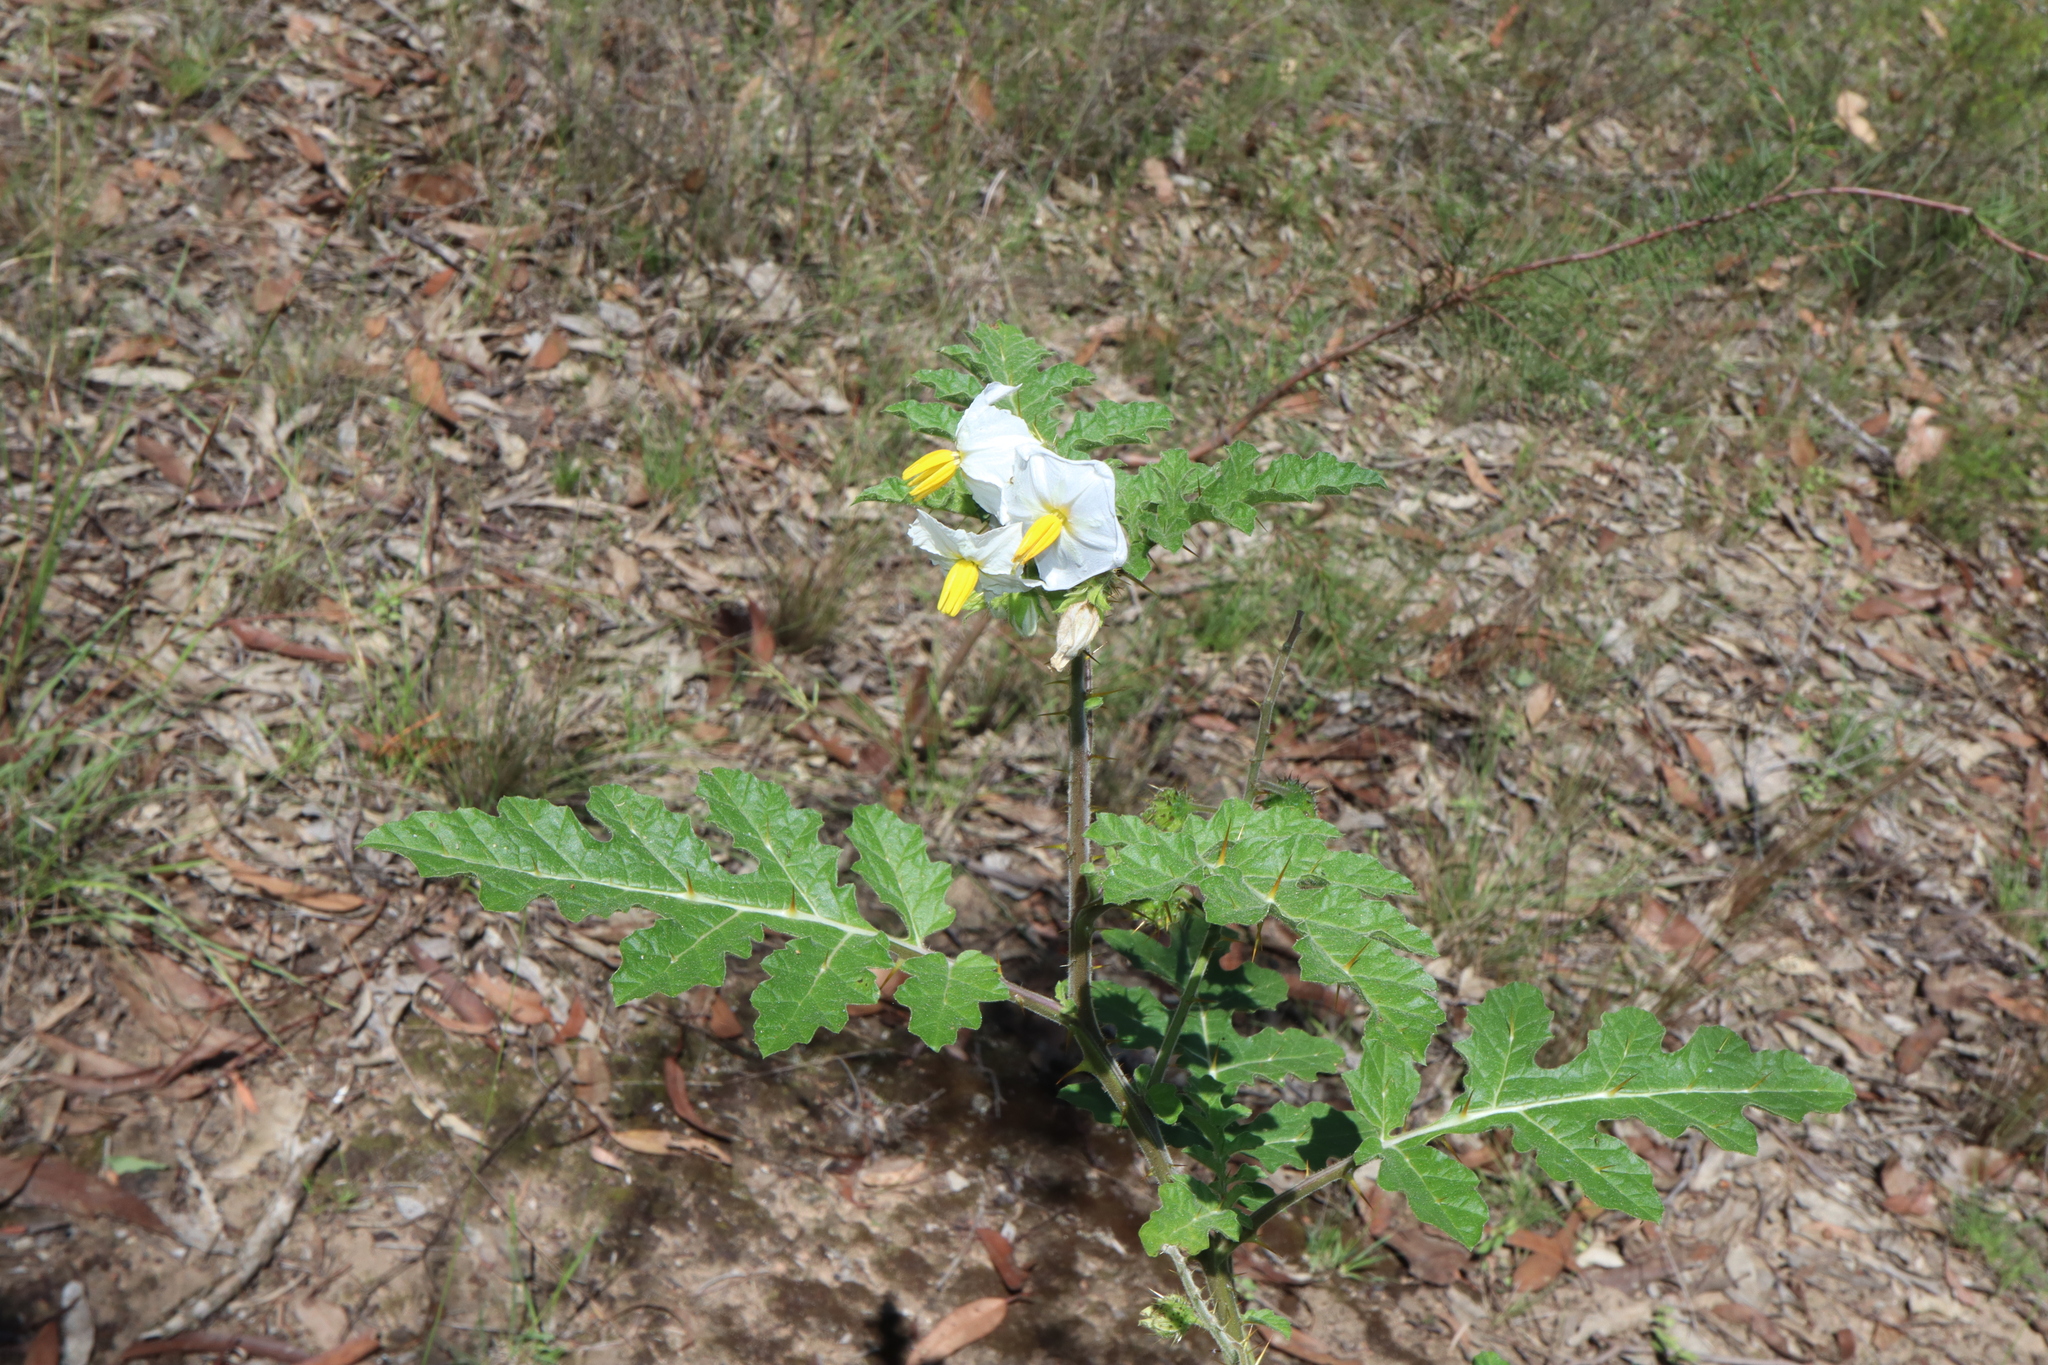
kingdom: Plantae
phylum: Tracheophyta
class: Magnoliopsida
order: Solanales
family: Solanaceae
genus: Solanum
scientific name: Solanum sisymbriifolium
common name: Red buffalo-bur
